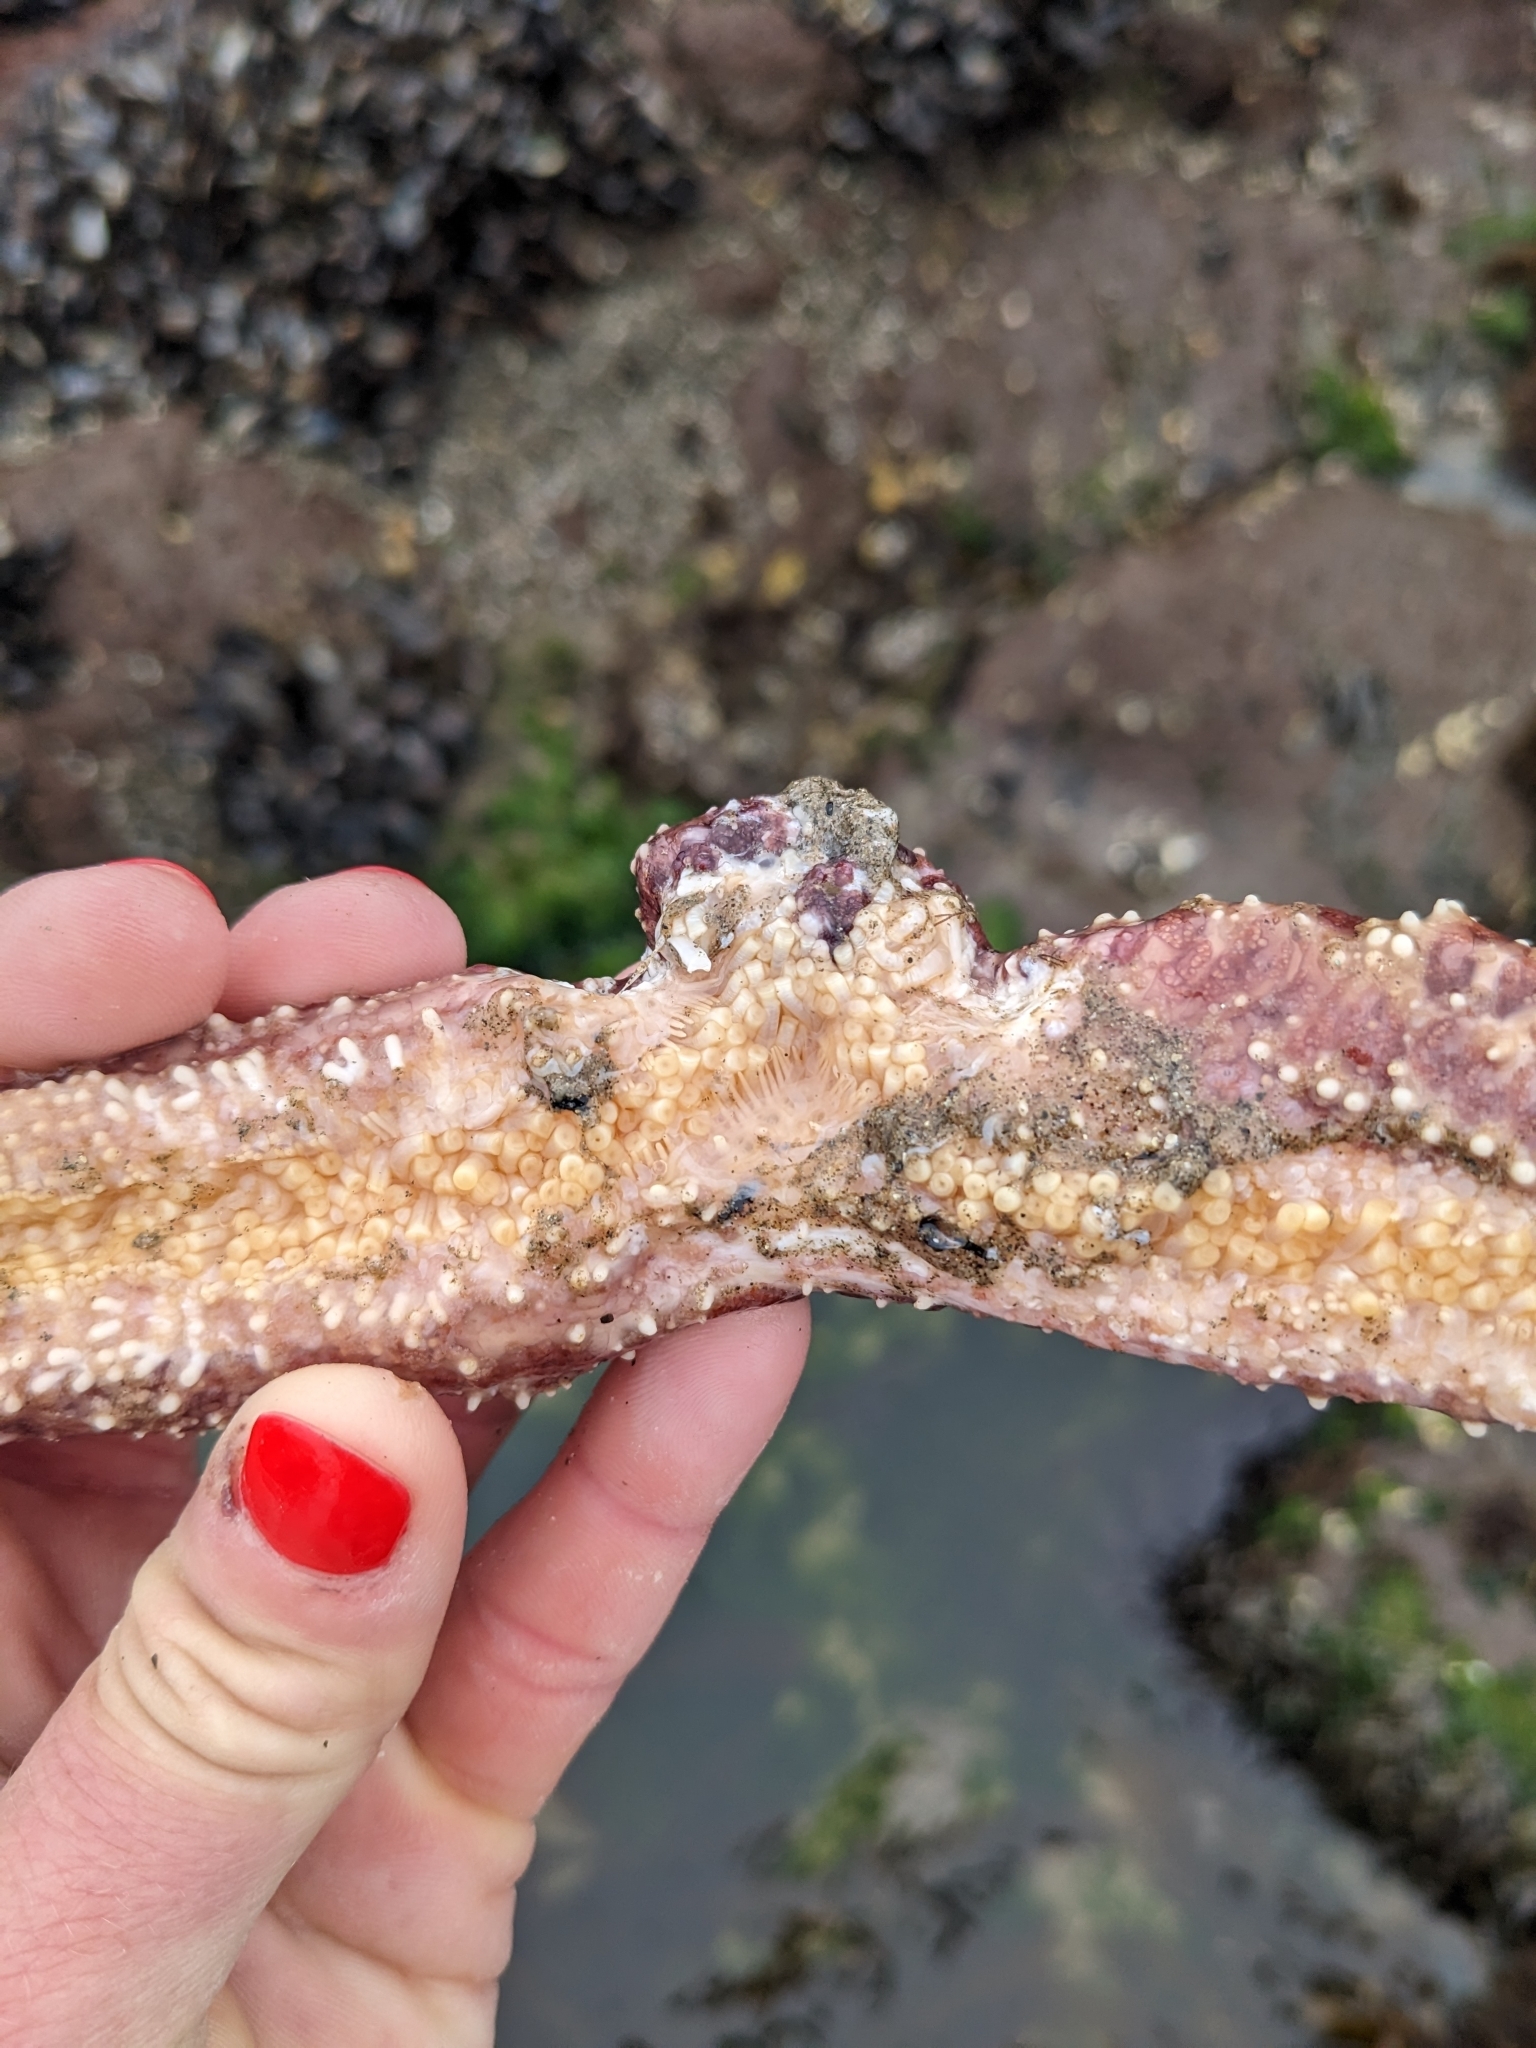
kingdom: Animalia
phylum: Echinodermata
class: Asteroidea
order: Forcipulatida
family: Asteriidae
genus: Pisaster
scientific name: Pisaster ochraceus
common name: Ochre stars
